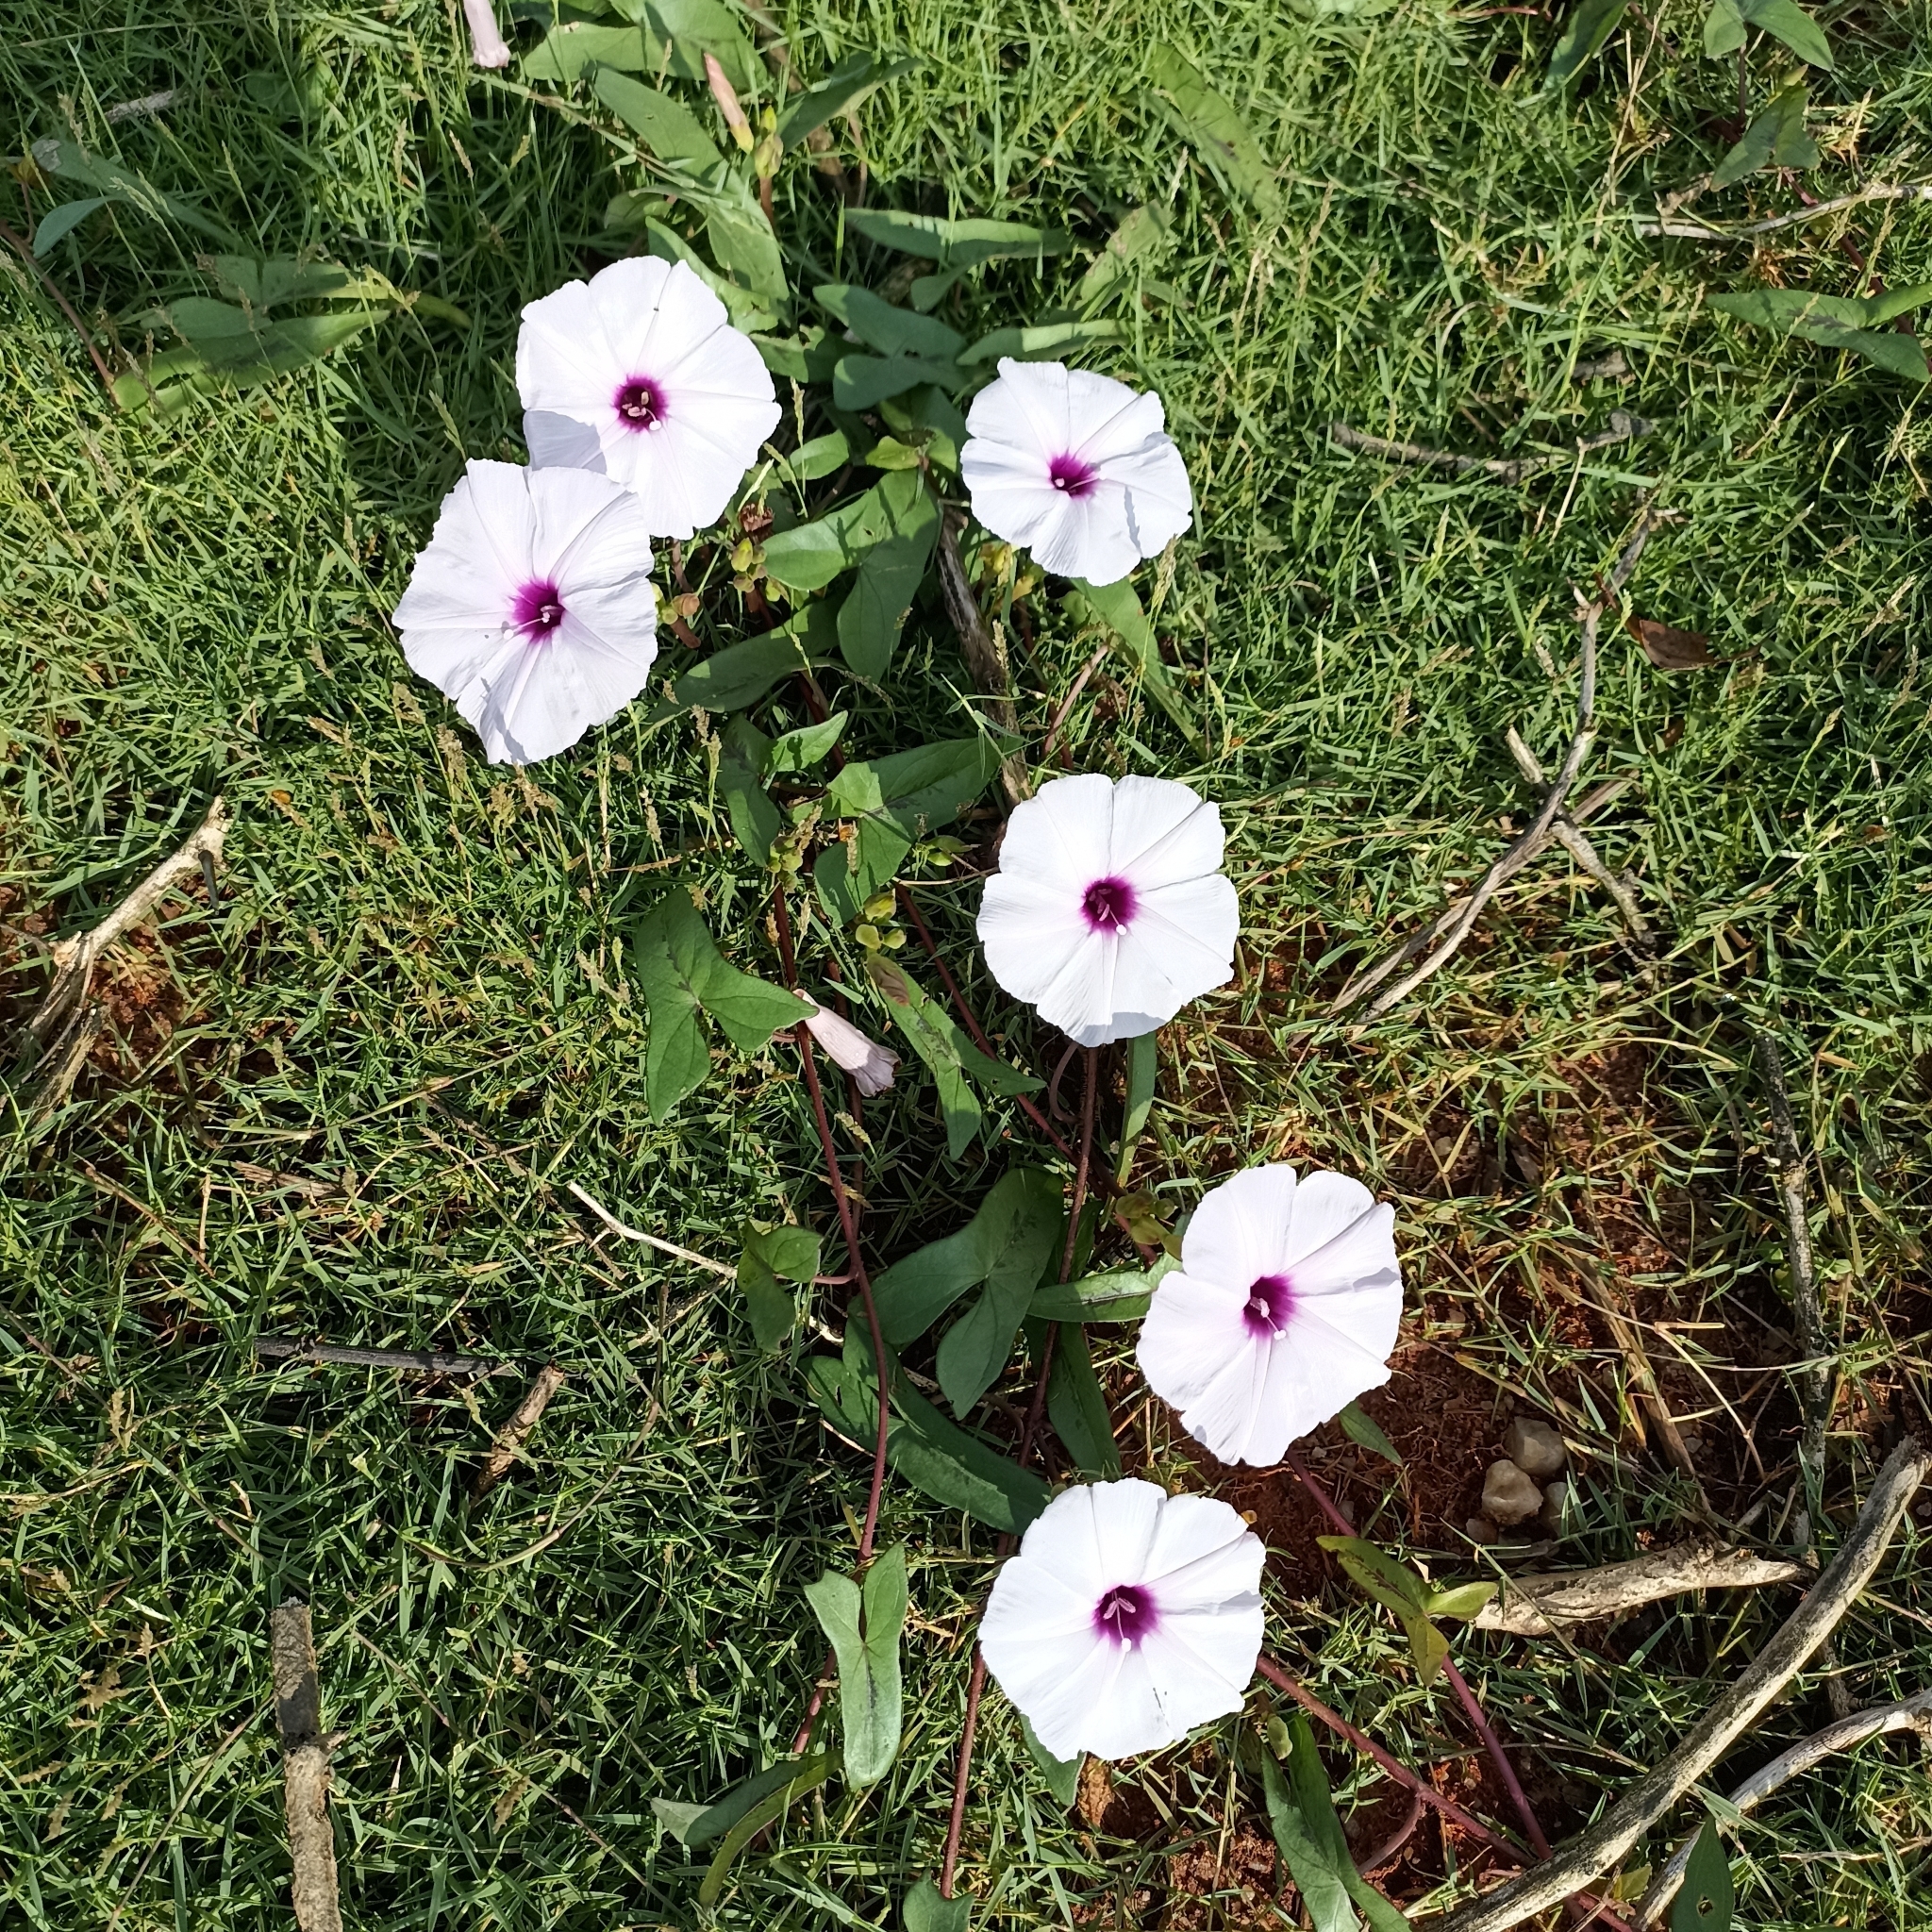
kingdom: Plantae
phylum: Tracheophyta
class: Magnoliopsida
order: Solanales
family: Convolvulaceae
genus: Ipomoea
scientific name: Ipomoea aquatica
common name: Swamp morning-glory
